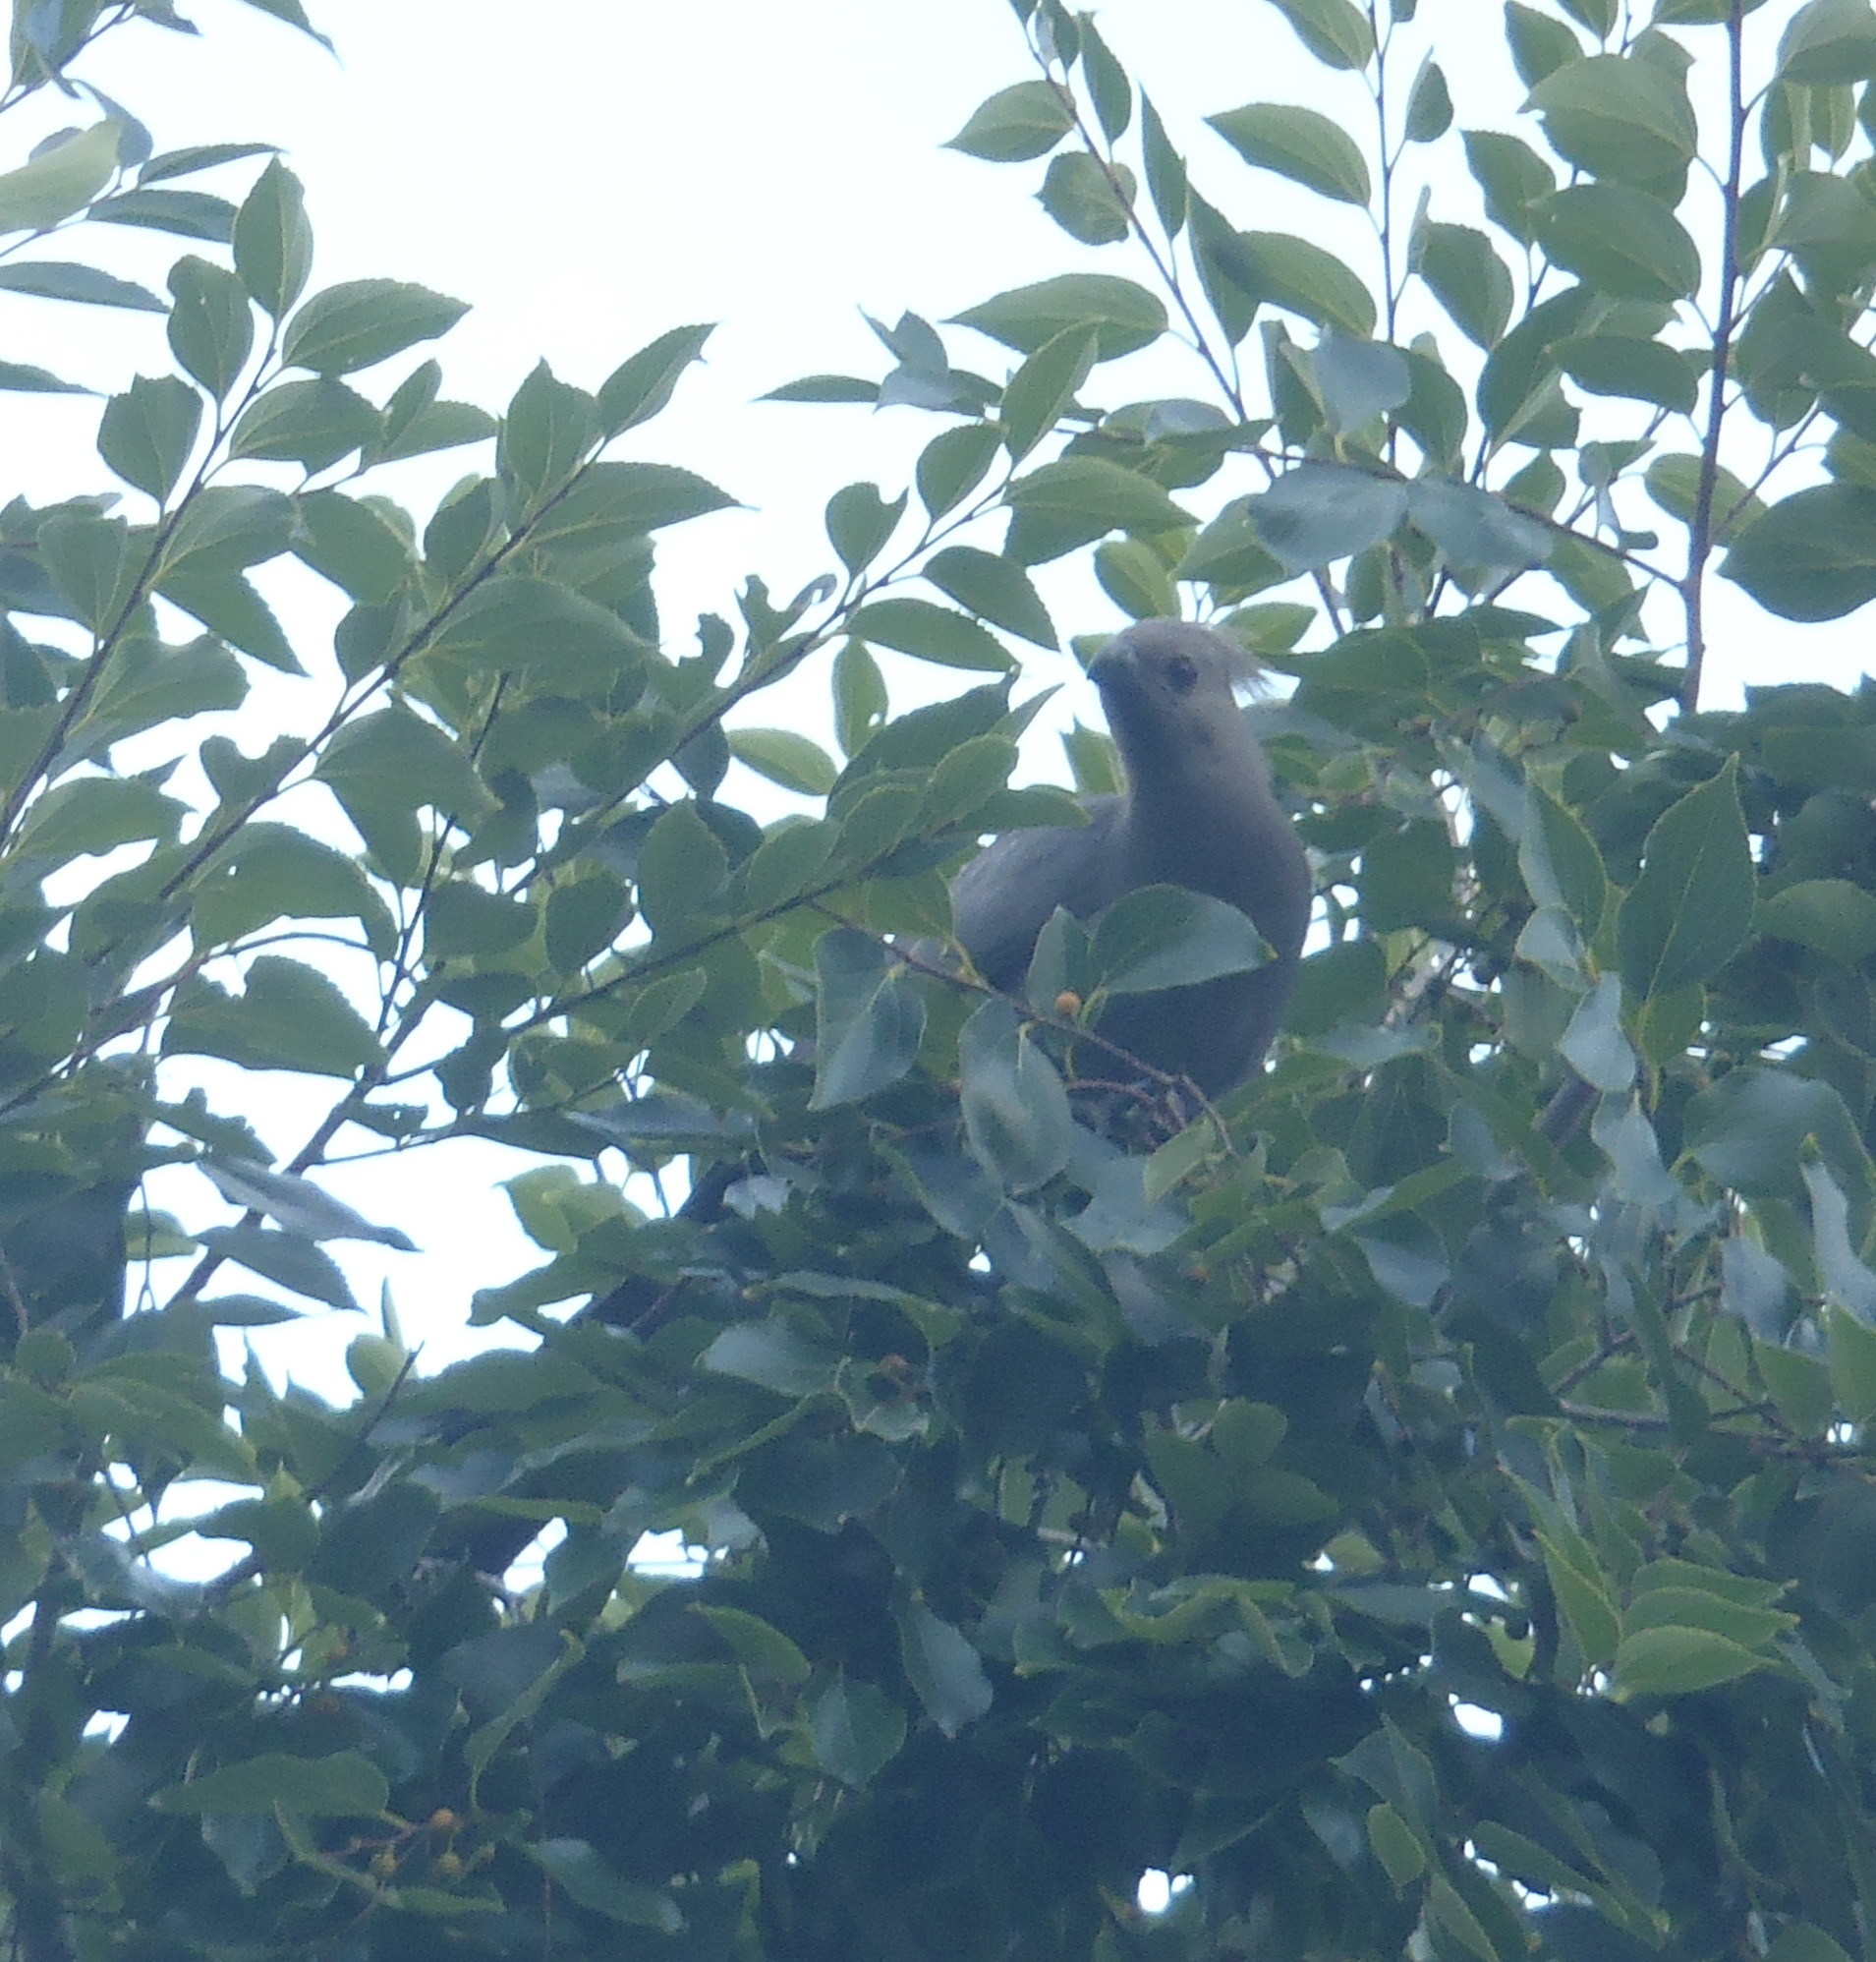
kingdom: Animalia
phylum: Chordata
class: Aves
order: Musophagiformes
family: Musophagidae
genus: Corythaixoides
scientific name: Corythaixoides concolor
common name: Grey go-away-bird
